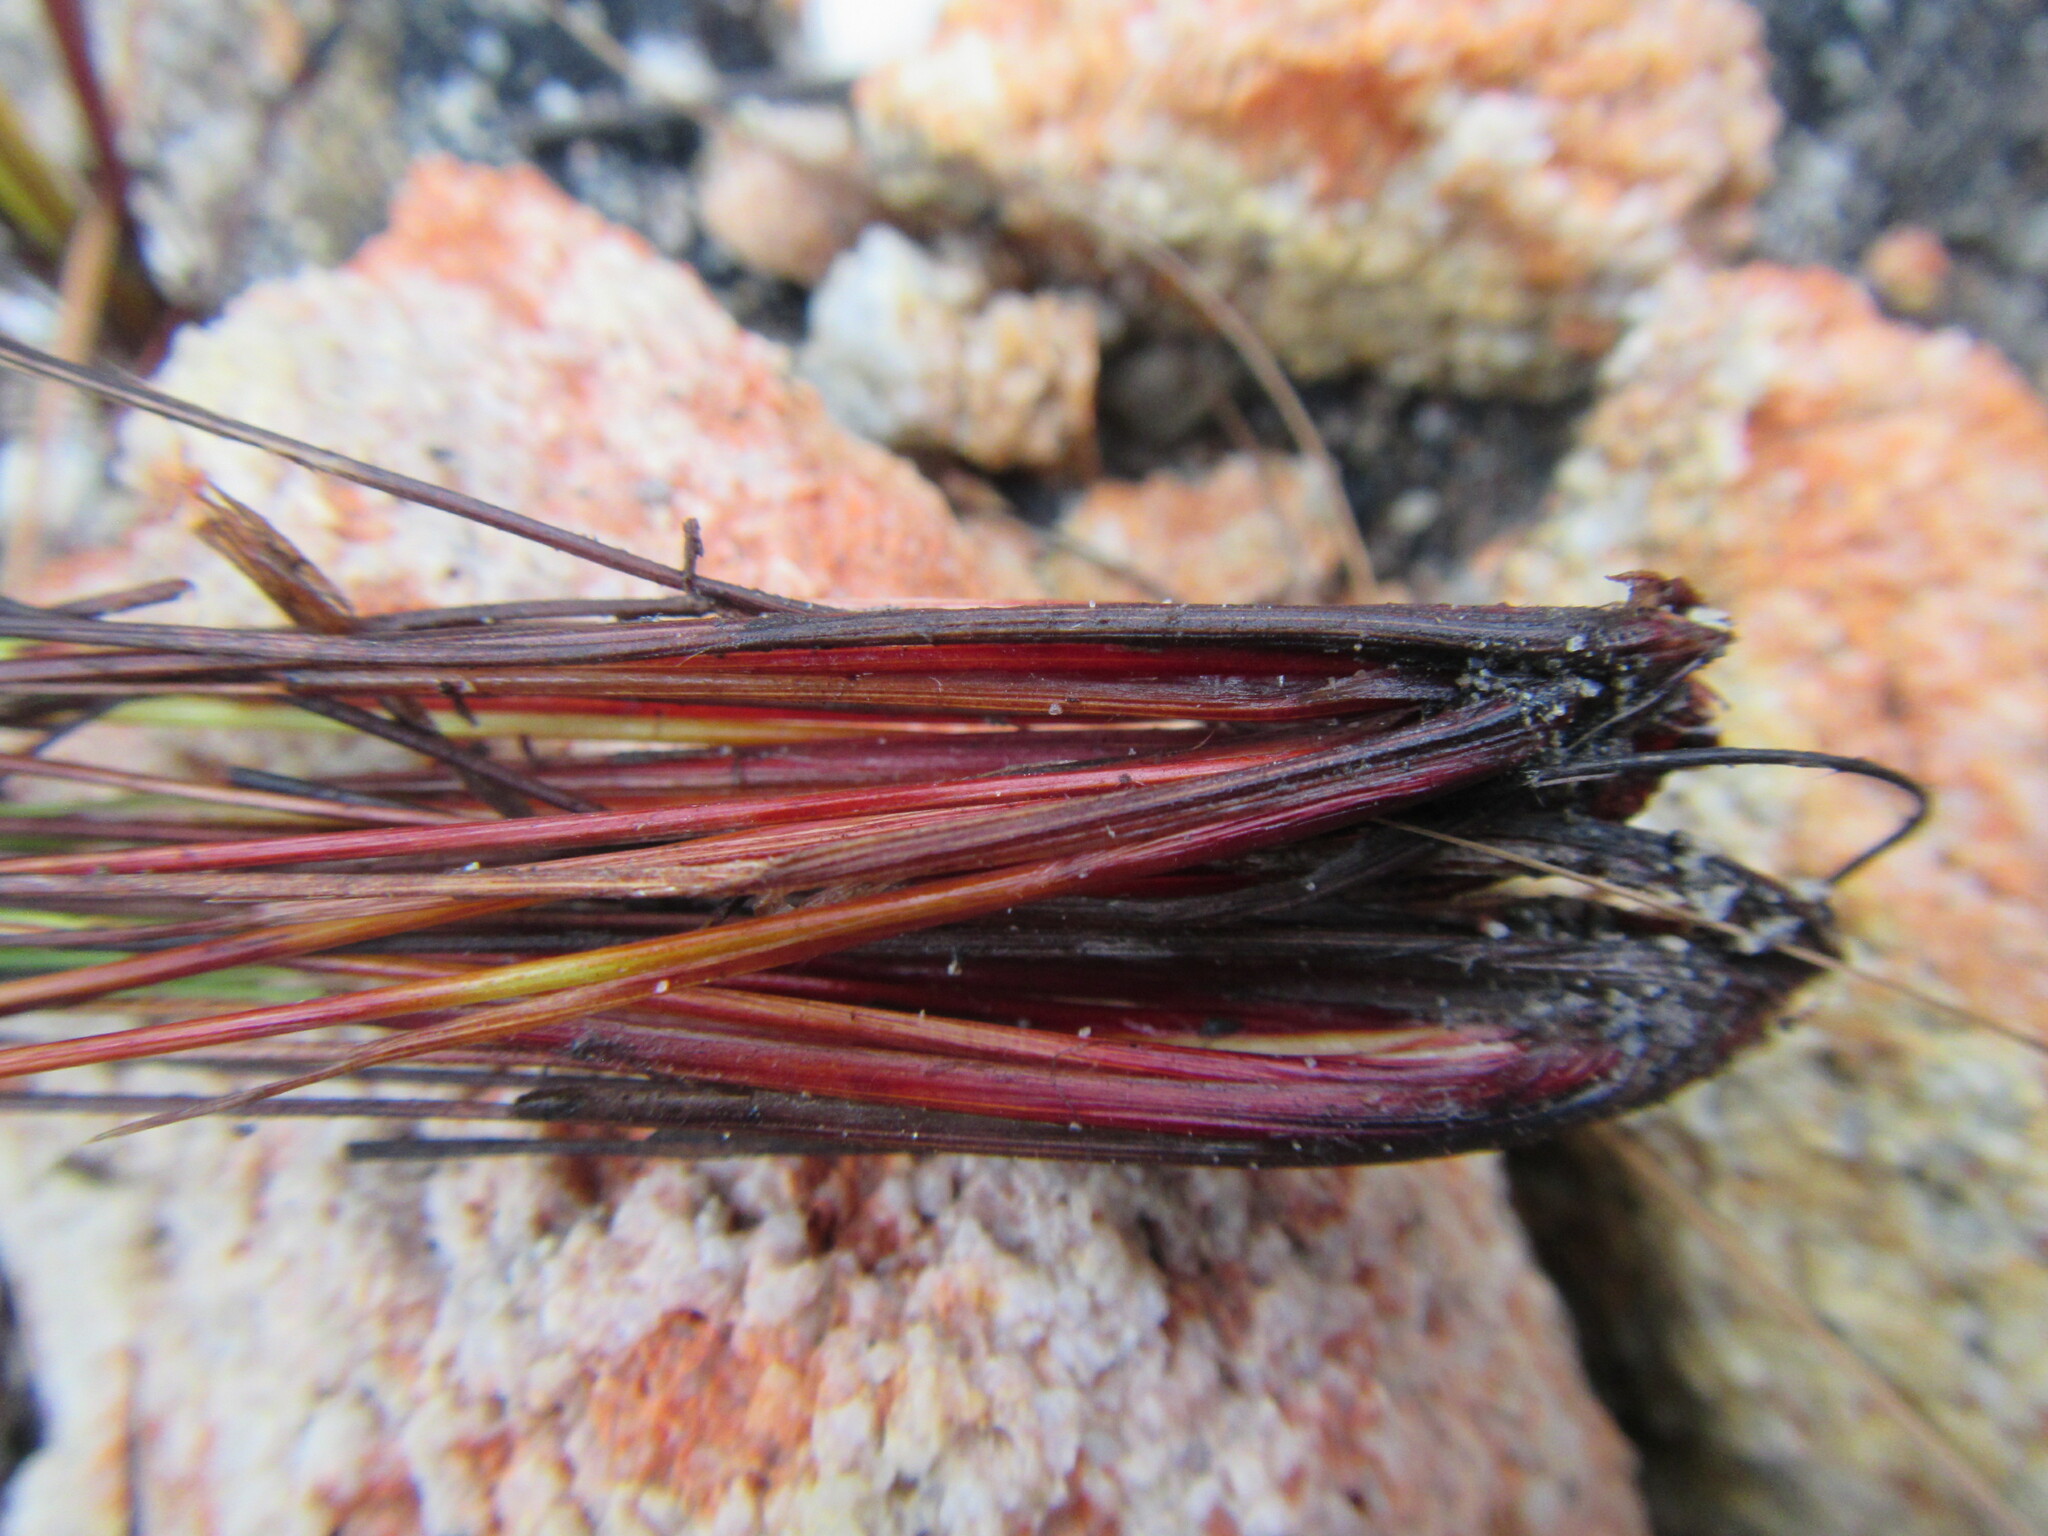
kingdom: Plantae
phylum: Tracheophyta
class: Liliopsida
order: Poales
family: Cyperaceae
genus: Schoenus
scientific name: Schoenus bolusii
